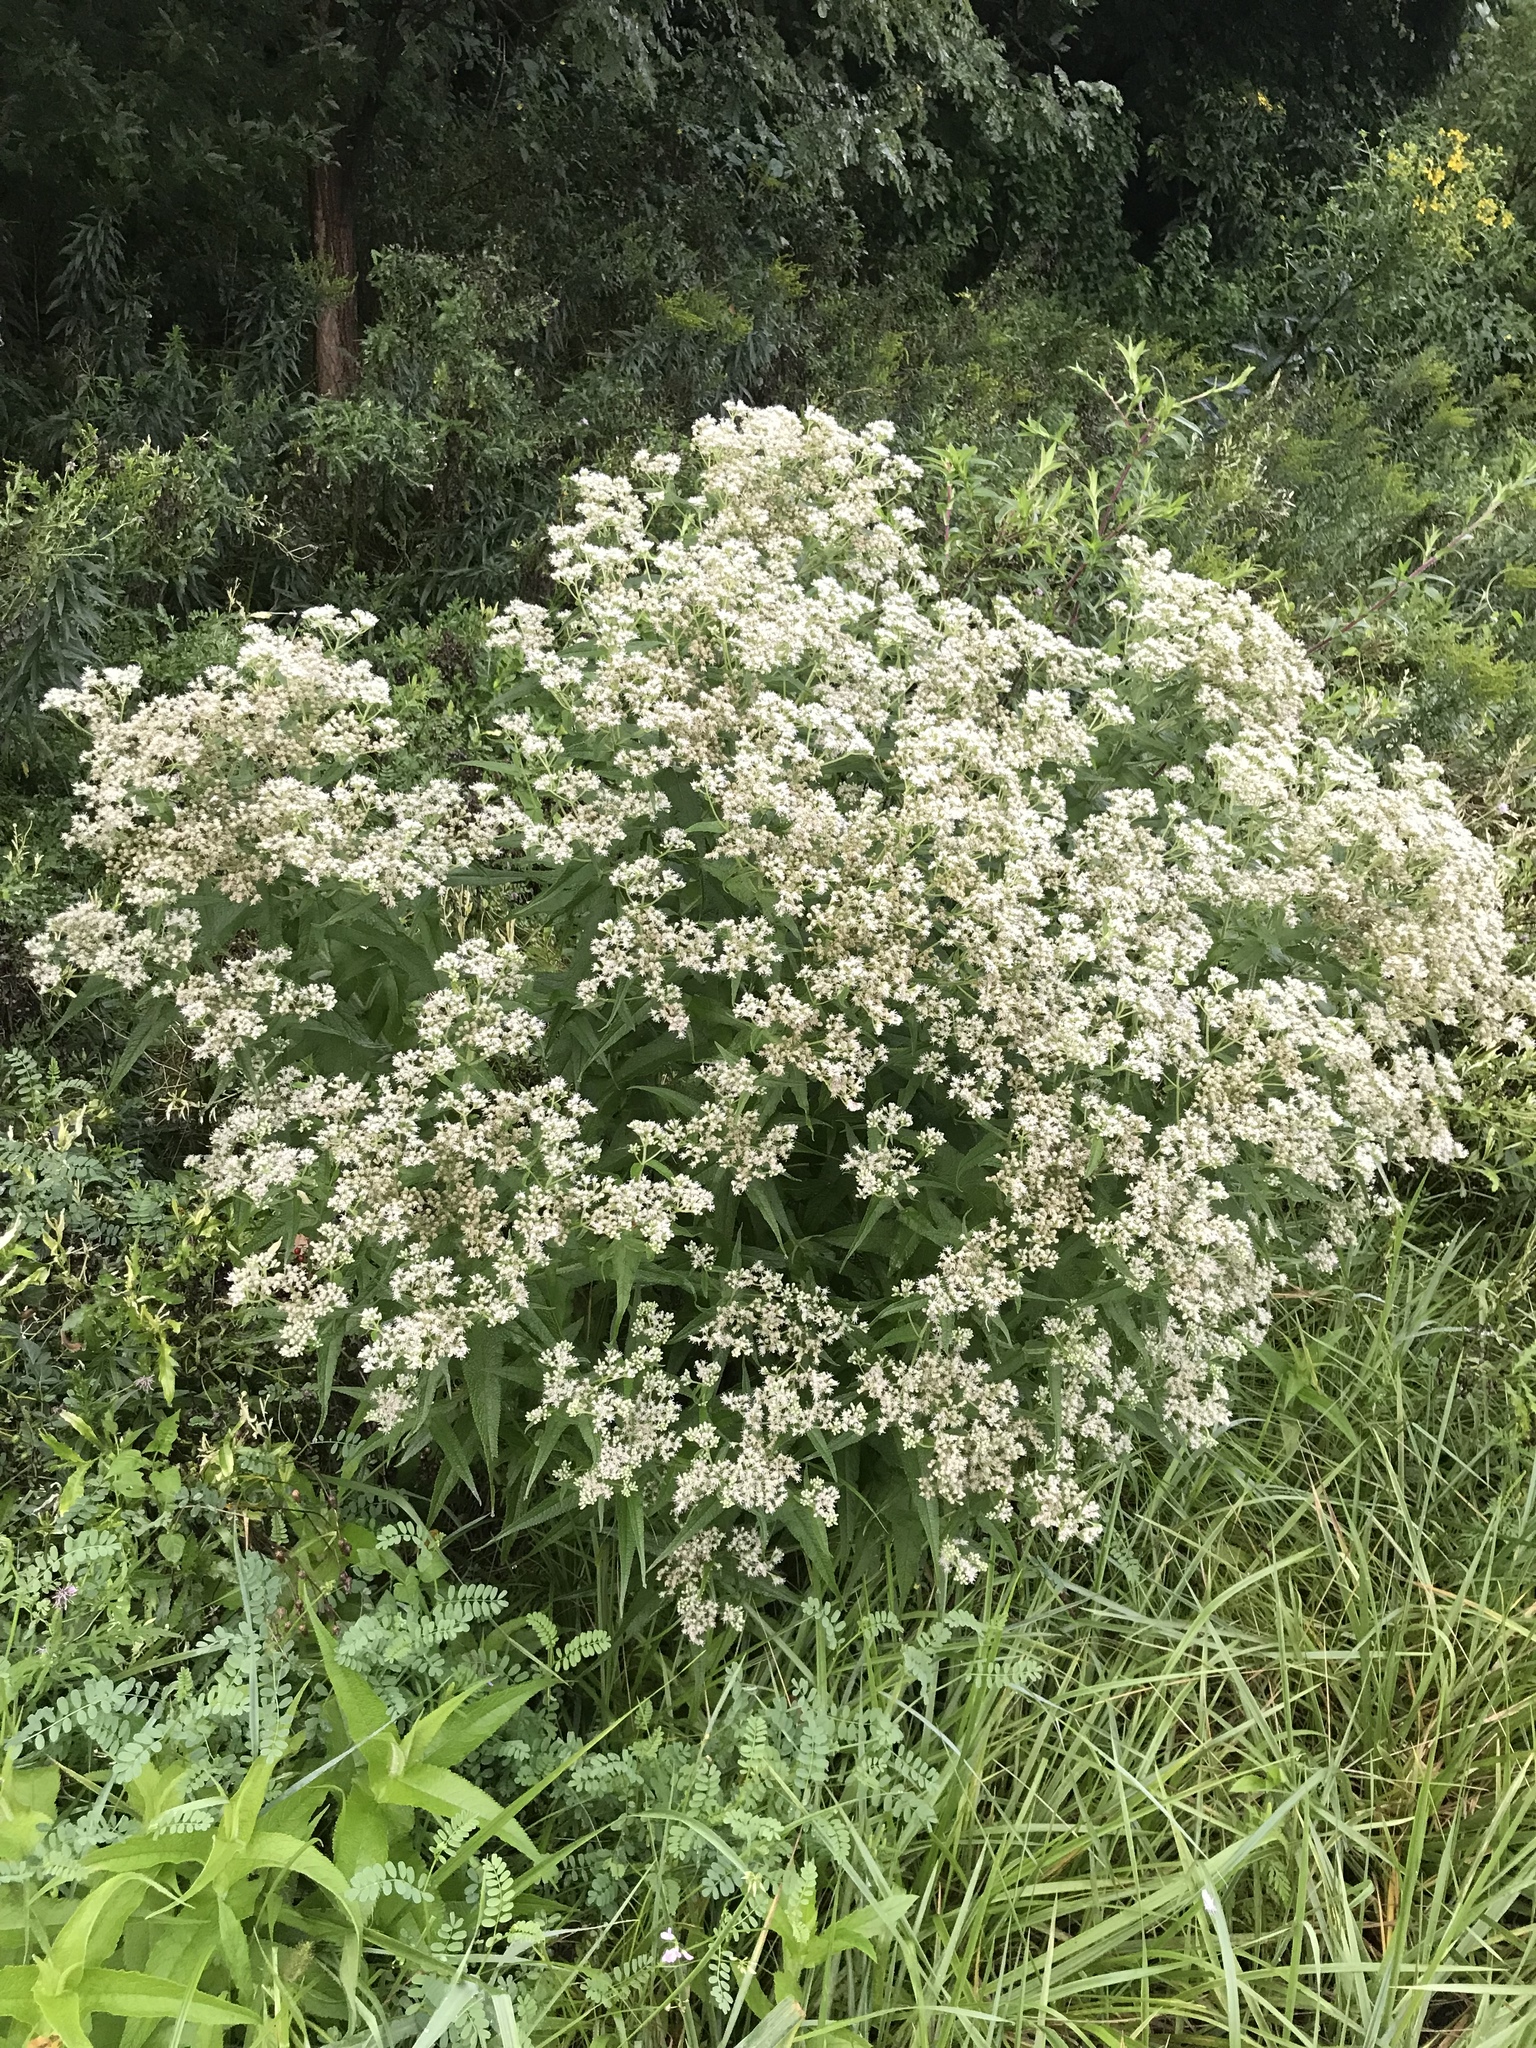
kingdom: Plantae
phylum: Tracheophyta
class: Magnoliopsida
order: Asterales
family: Asteraceae
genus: Eupatorium
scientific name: Eupatorium perfoliatum
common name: Boneset
